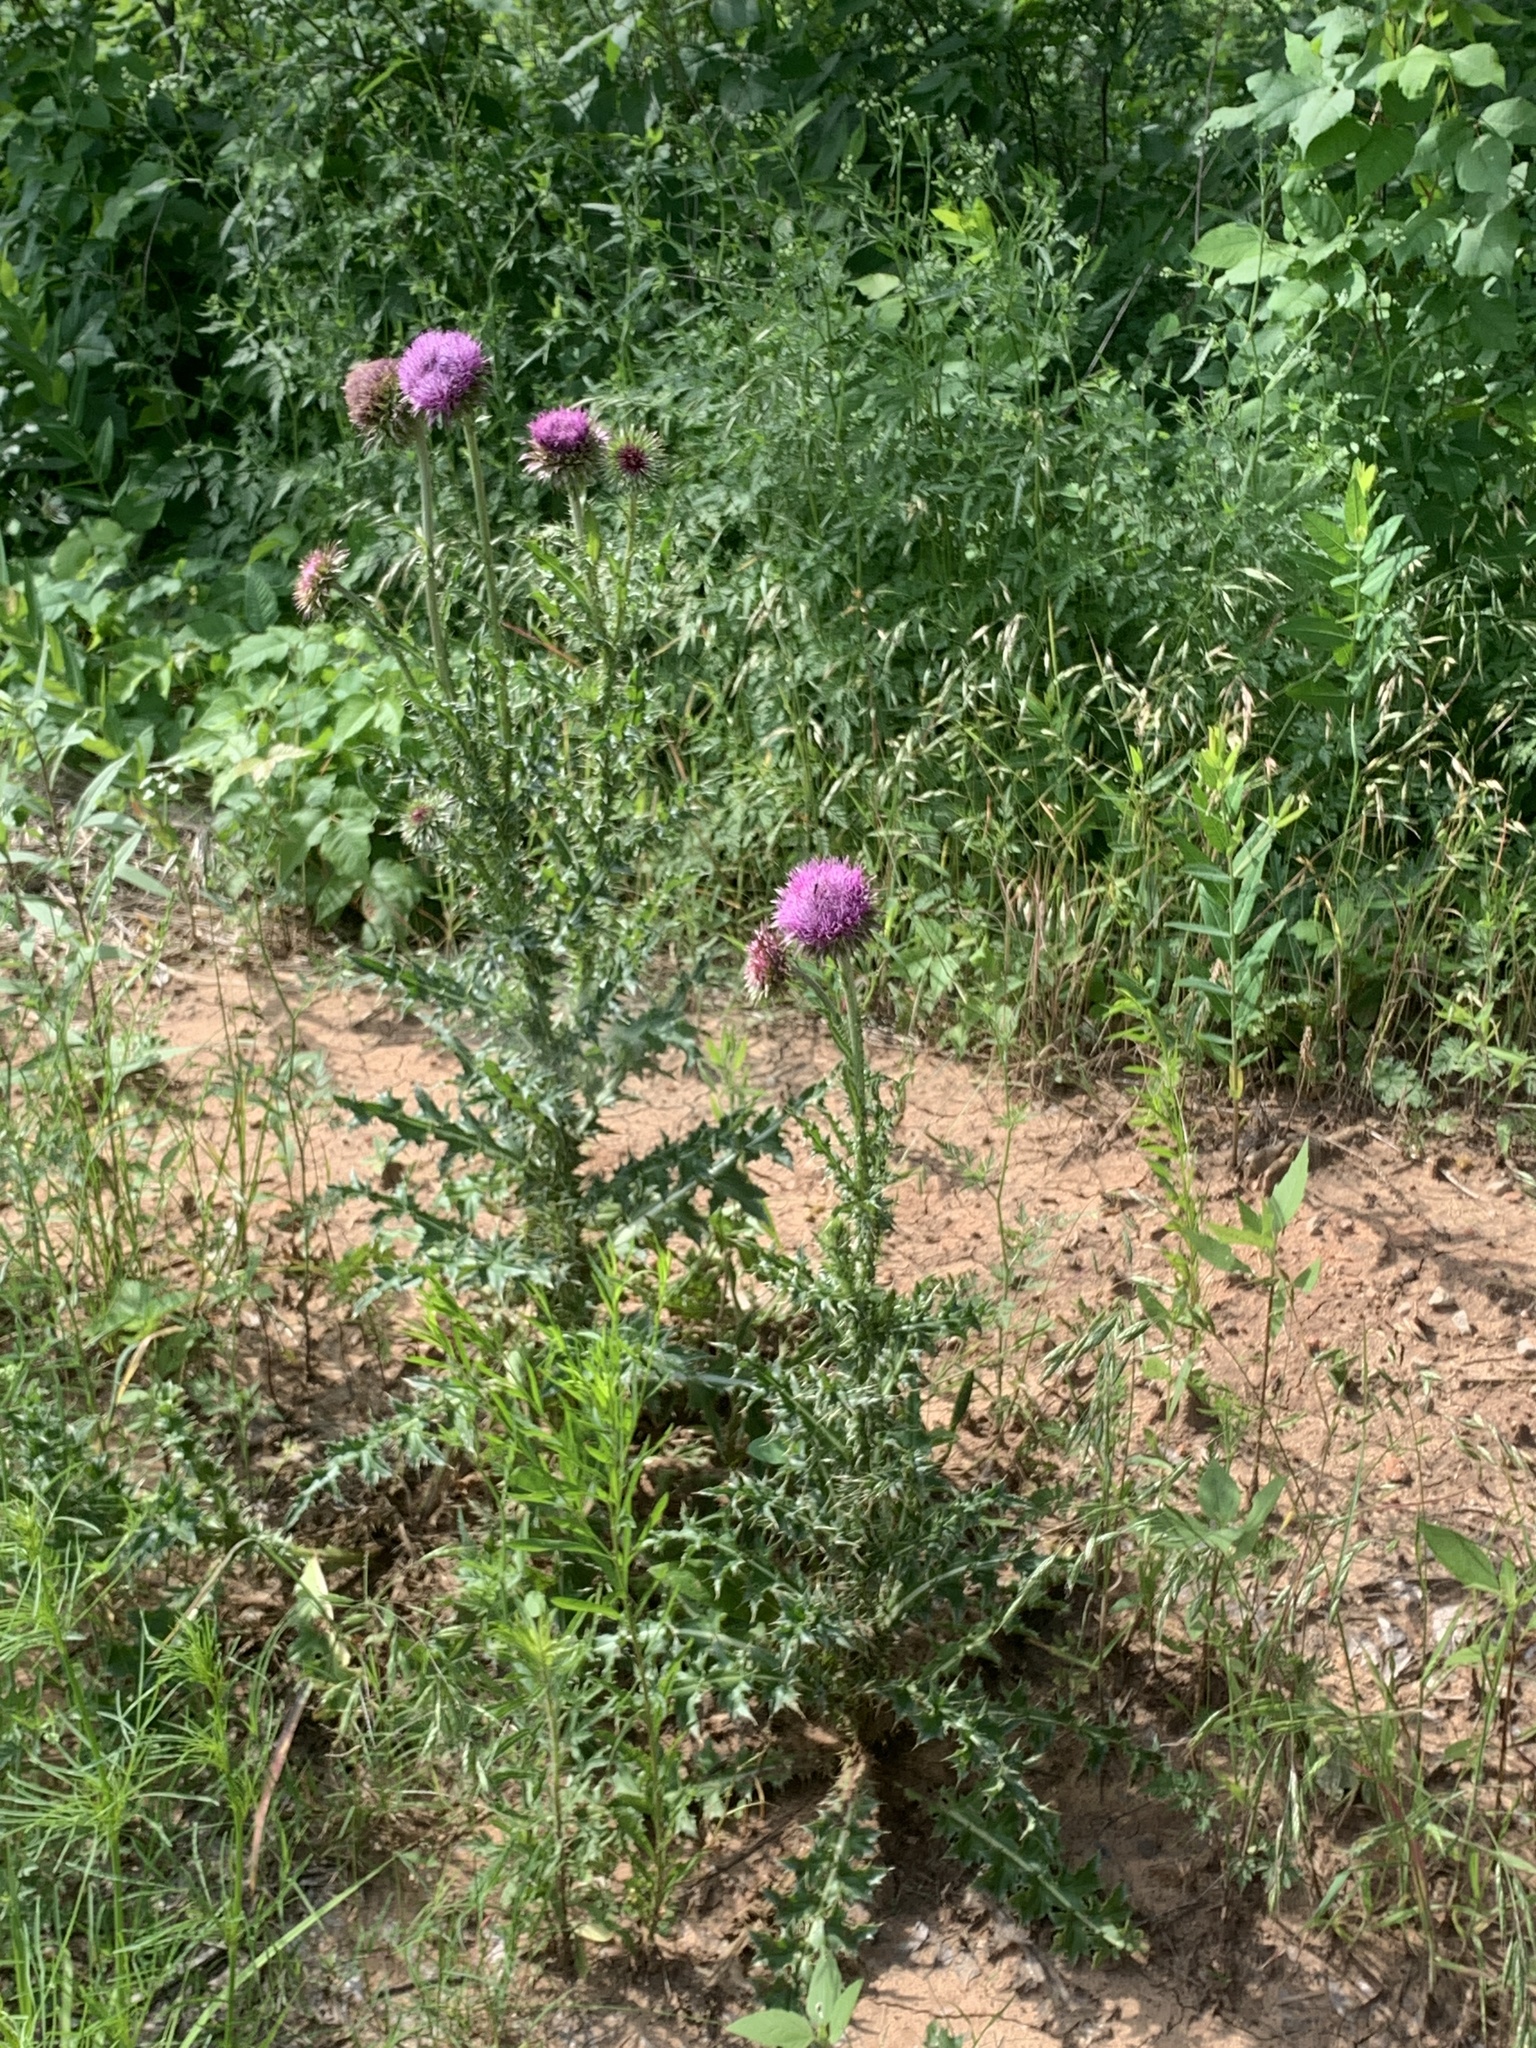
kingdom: Plantae
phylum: Tracheophyta
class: Magnoliopsida
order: Asterales
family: Asteraceae
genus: Carduus
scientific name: Carduus nutans
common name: Musk thistle
